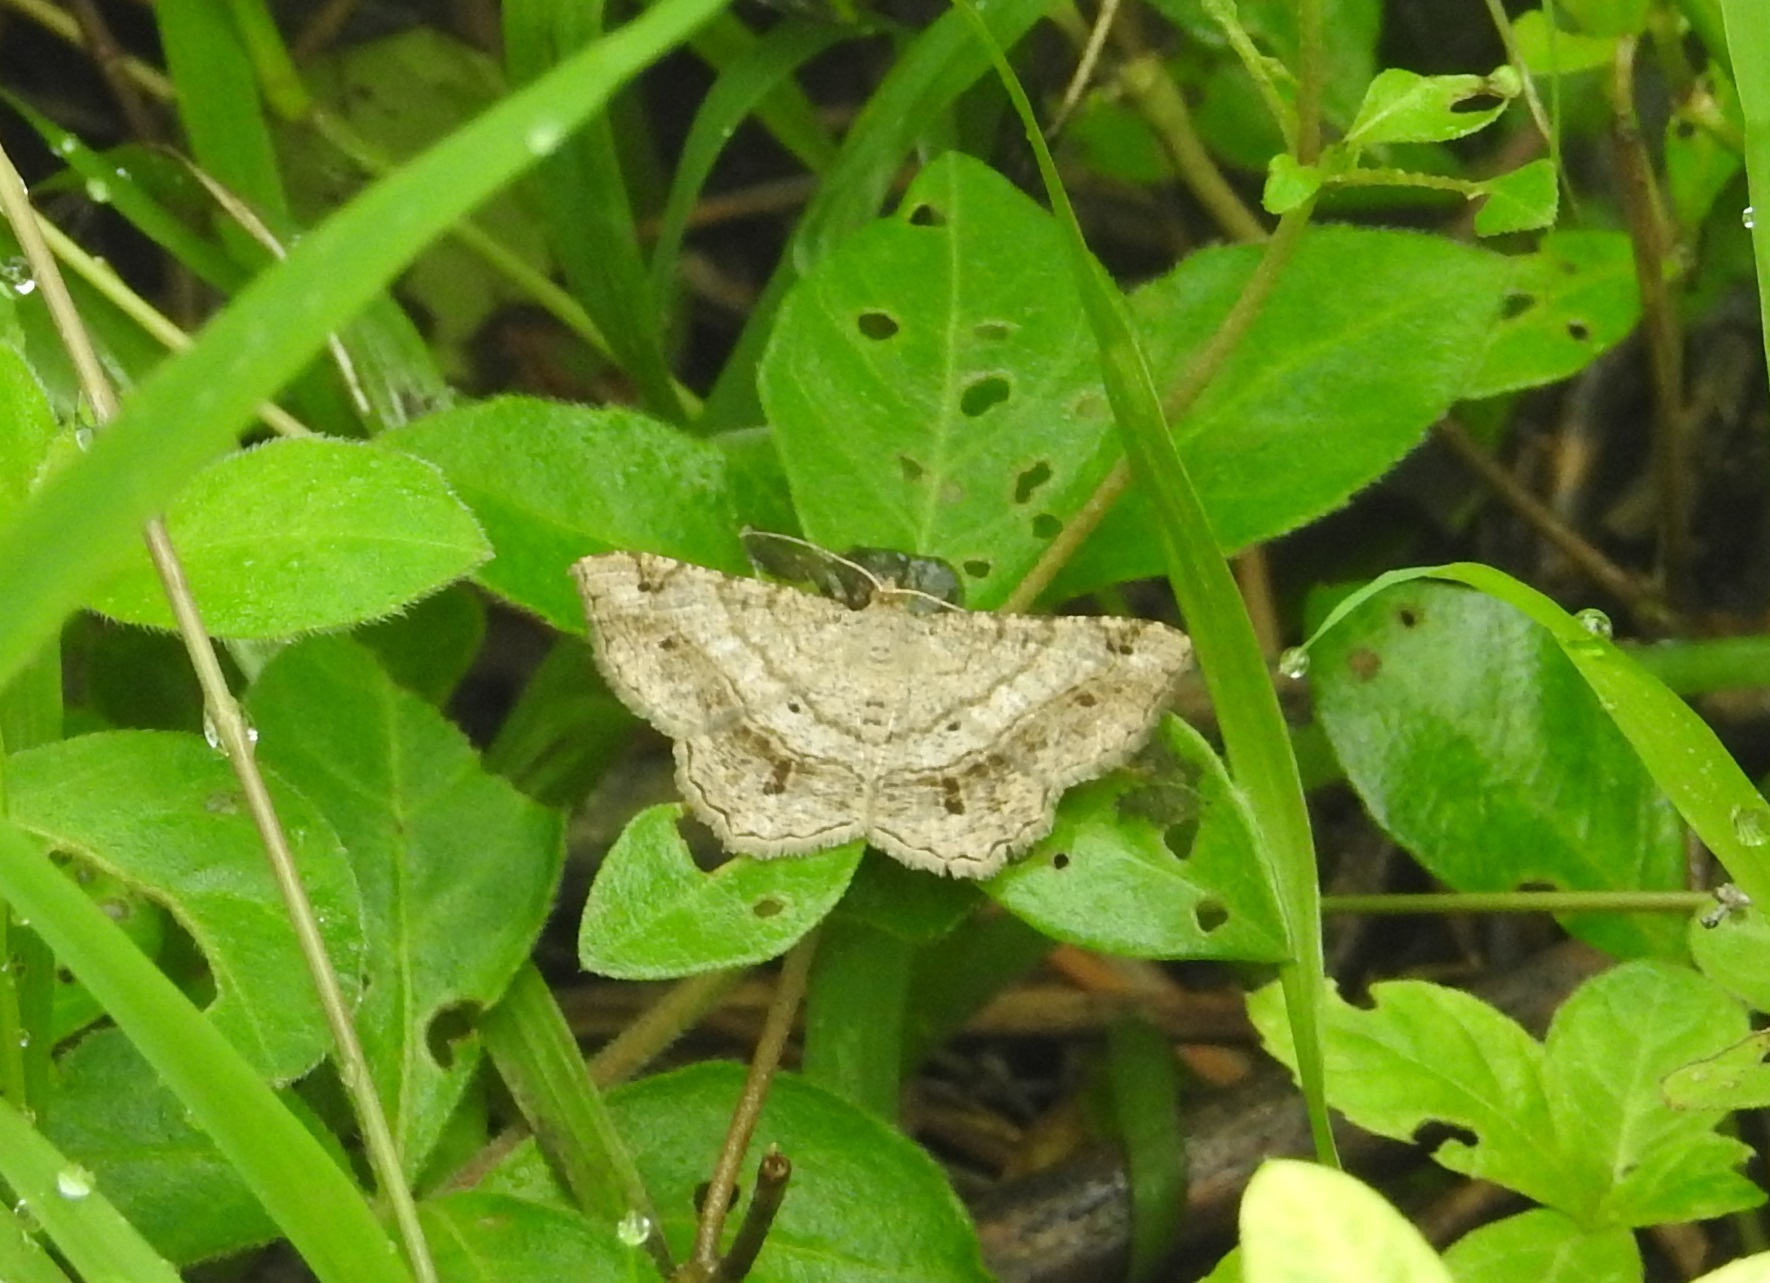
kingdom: Animalia
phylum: Arthropoda
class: Insecta
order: Lepidoptera
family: Geometridae
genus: Chiasmia
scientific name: Chiasmia emersaria
